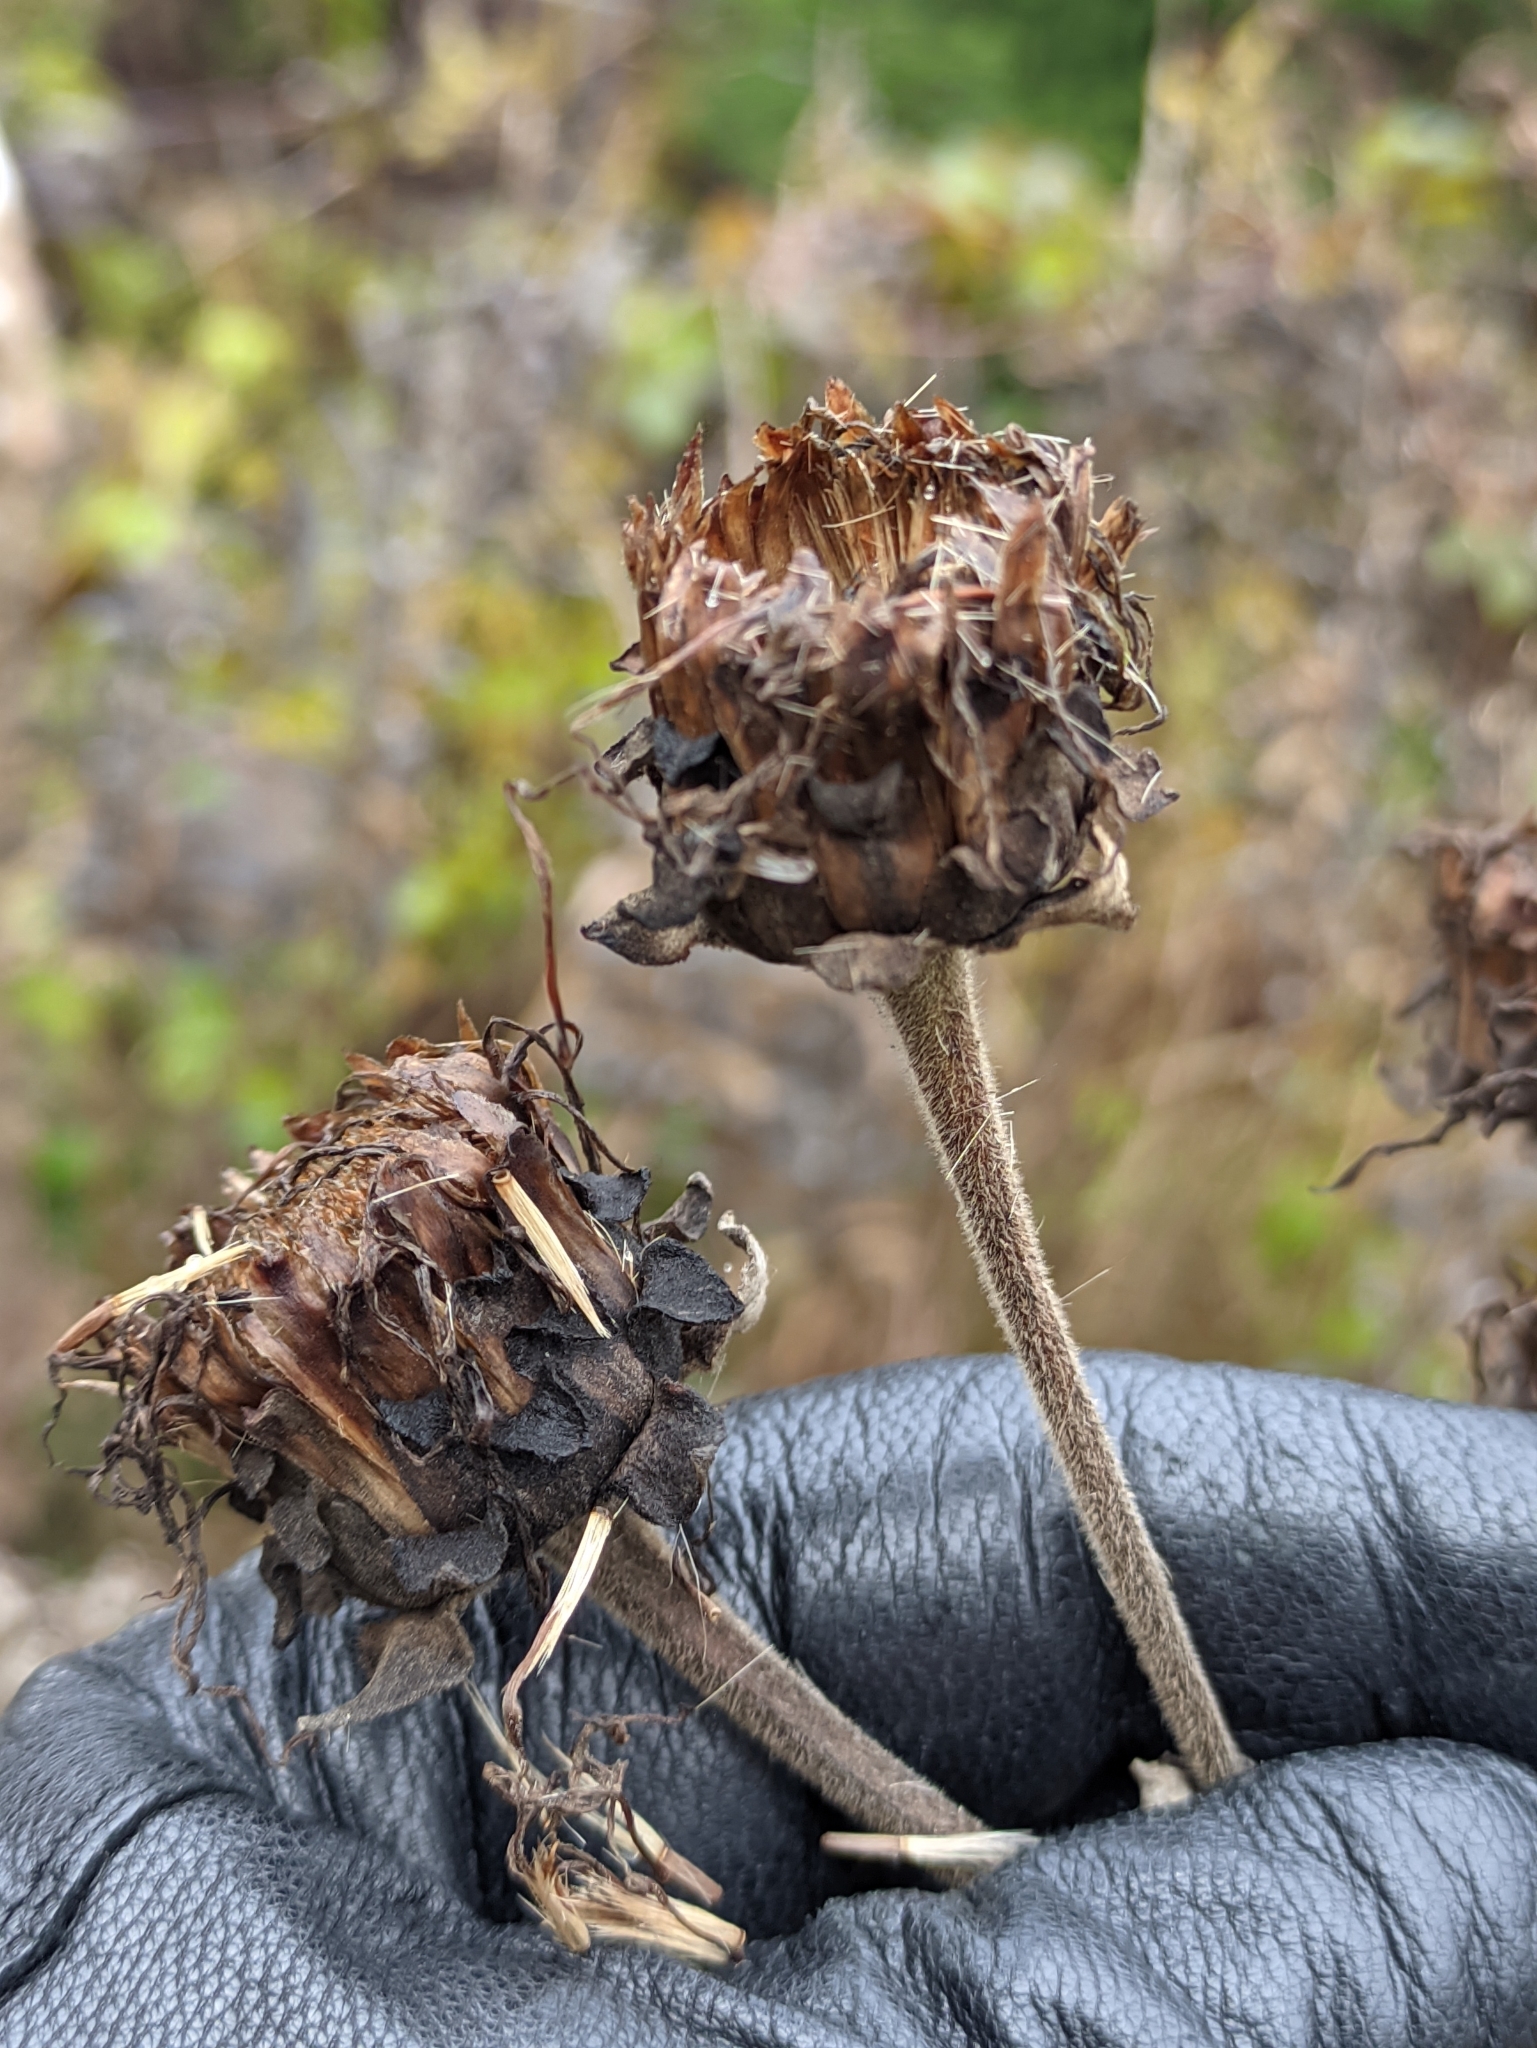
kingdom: Plantae
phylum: Tracheophyta
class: Magnoliopsida
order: Asterales
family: Asteraceae
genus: Inula
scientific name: Inula helenium
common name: Elecampane
